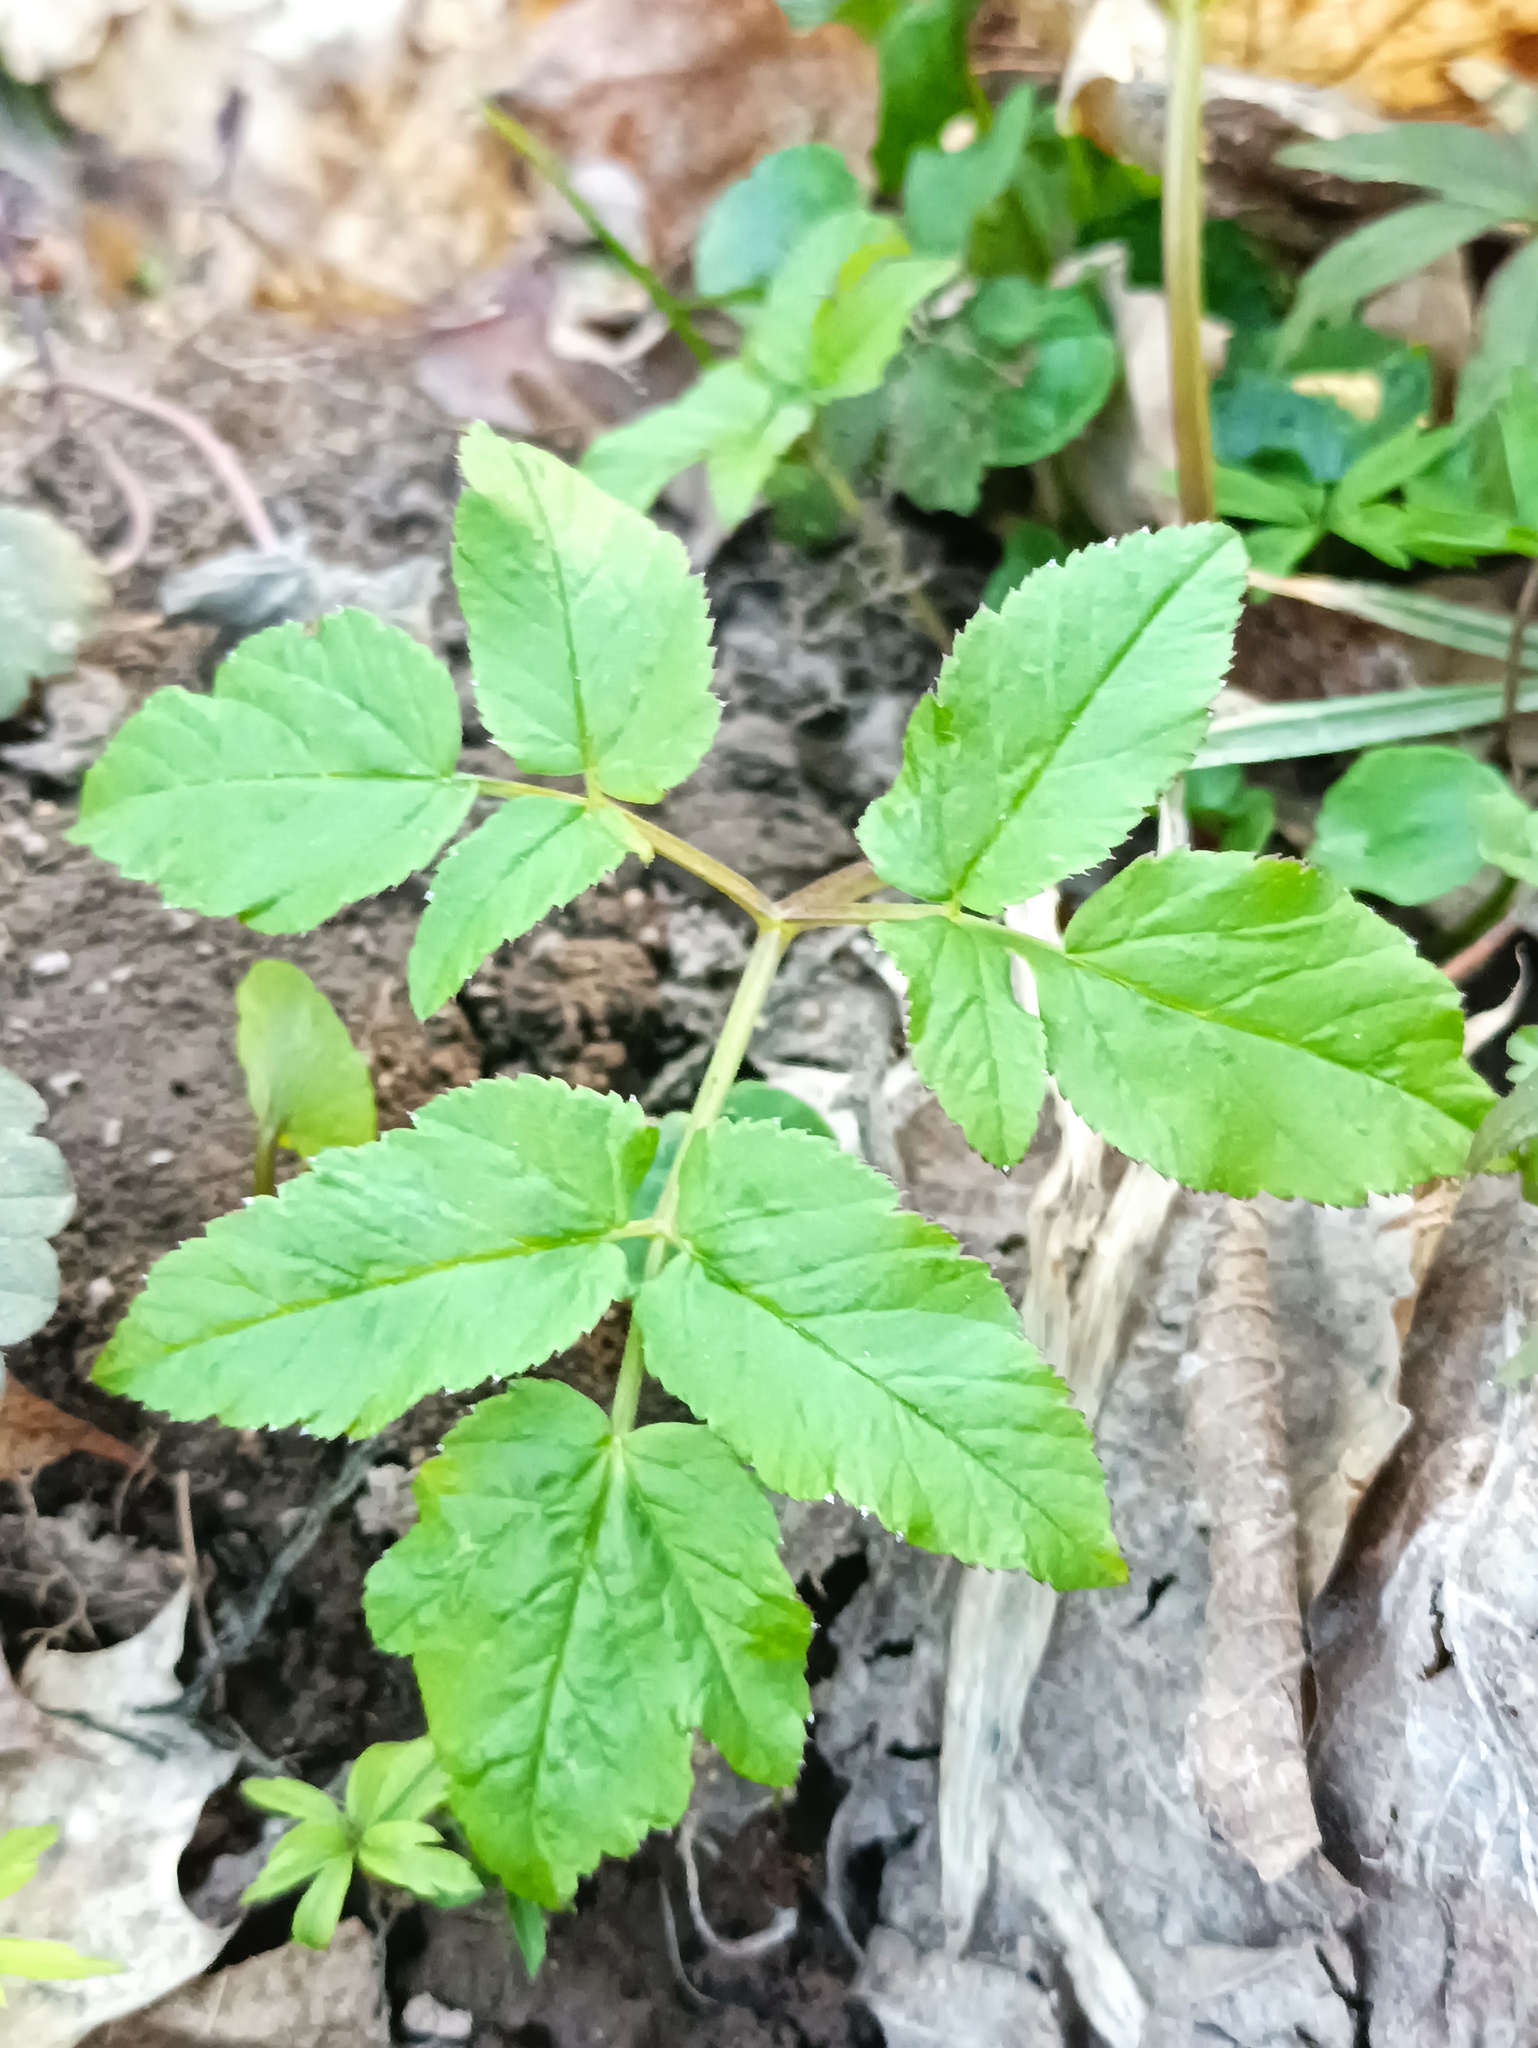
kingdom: Plantae
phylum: Tracheophyta
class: Magnoliopsida
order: Apiales
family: Apiaceae
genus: Aegopodium
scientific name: Aegopodium podagraria
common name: Ground-elder
